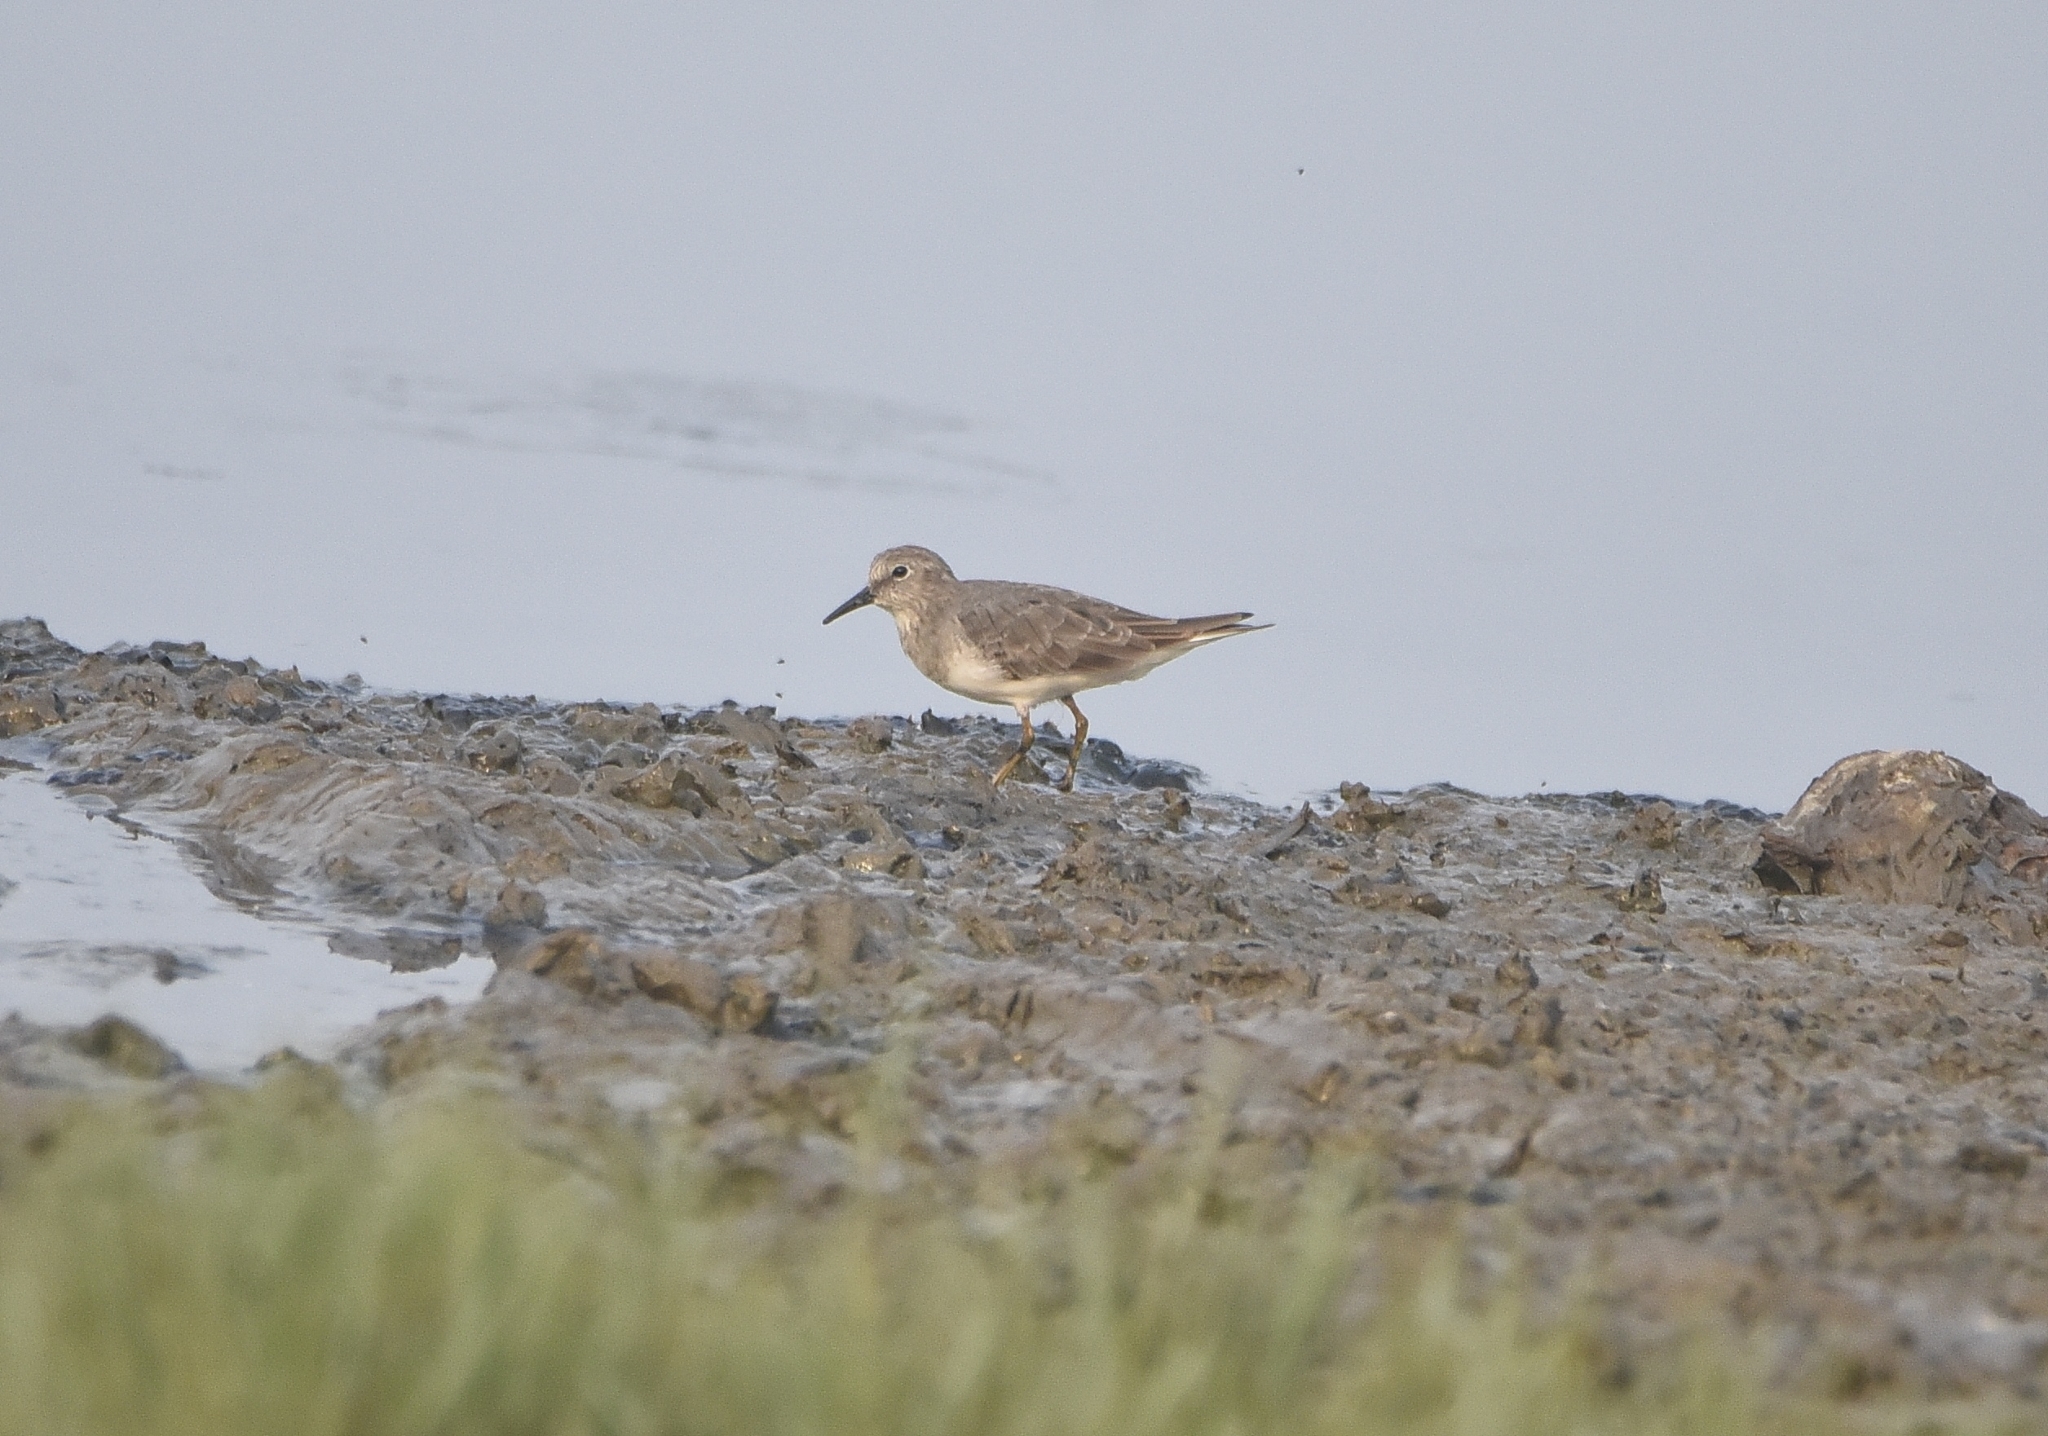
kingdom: Animalia
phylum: Chordata
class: Aves
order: Charadriiformes
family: Scolopacidae
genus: Calidris
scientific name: Calidris temminckii
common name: Temminck's stint
